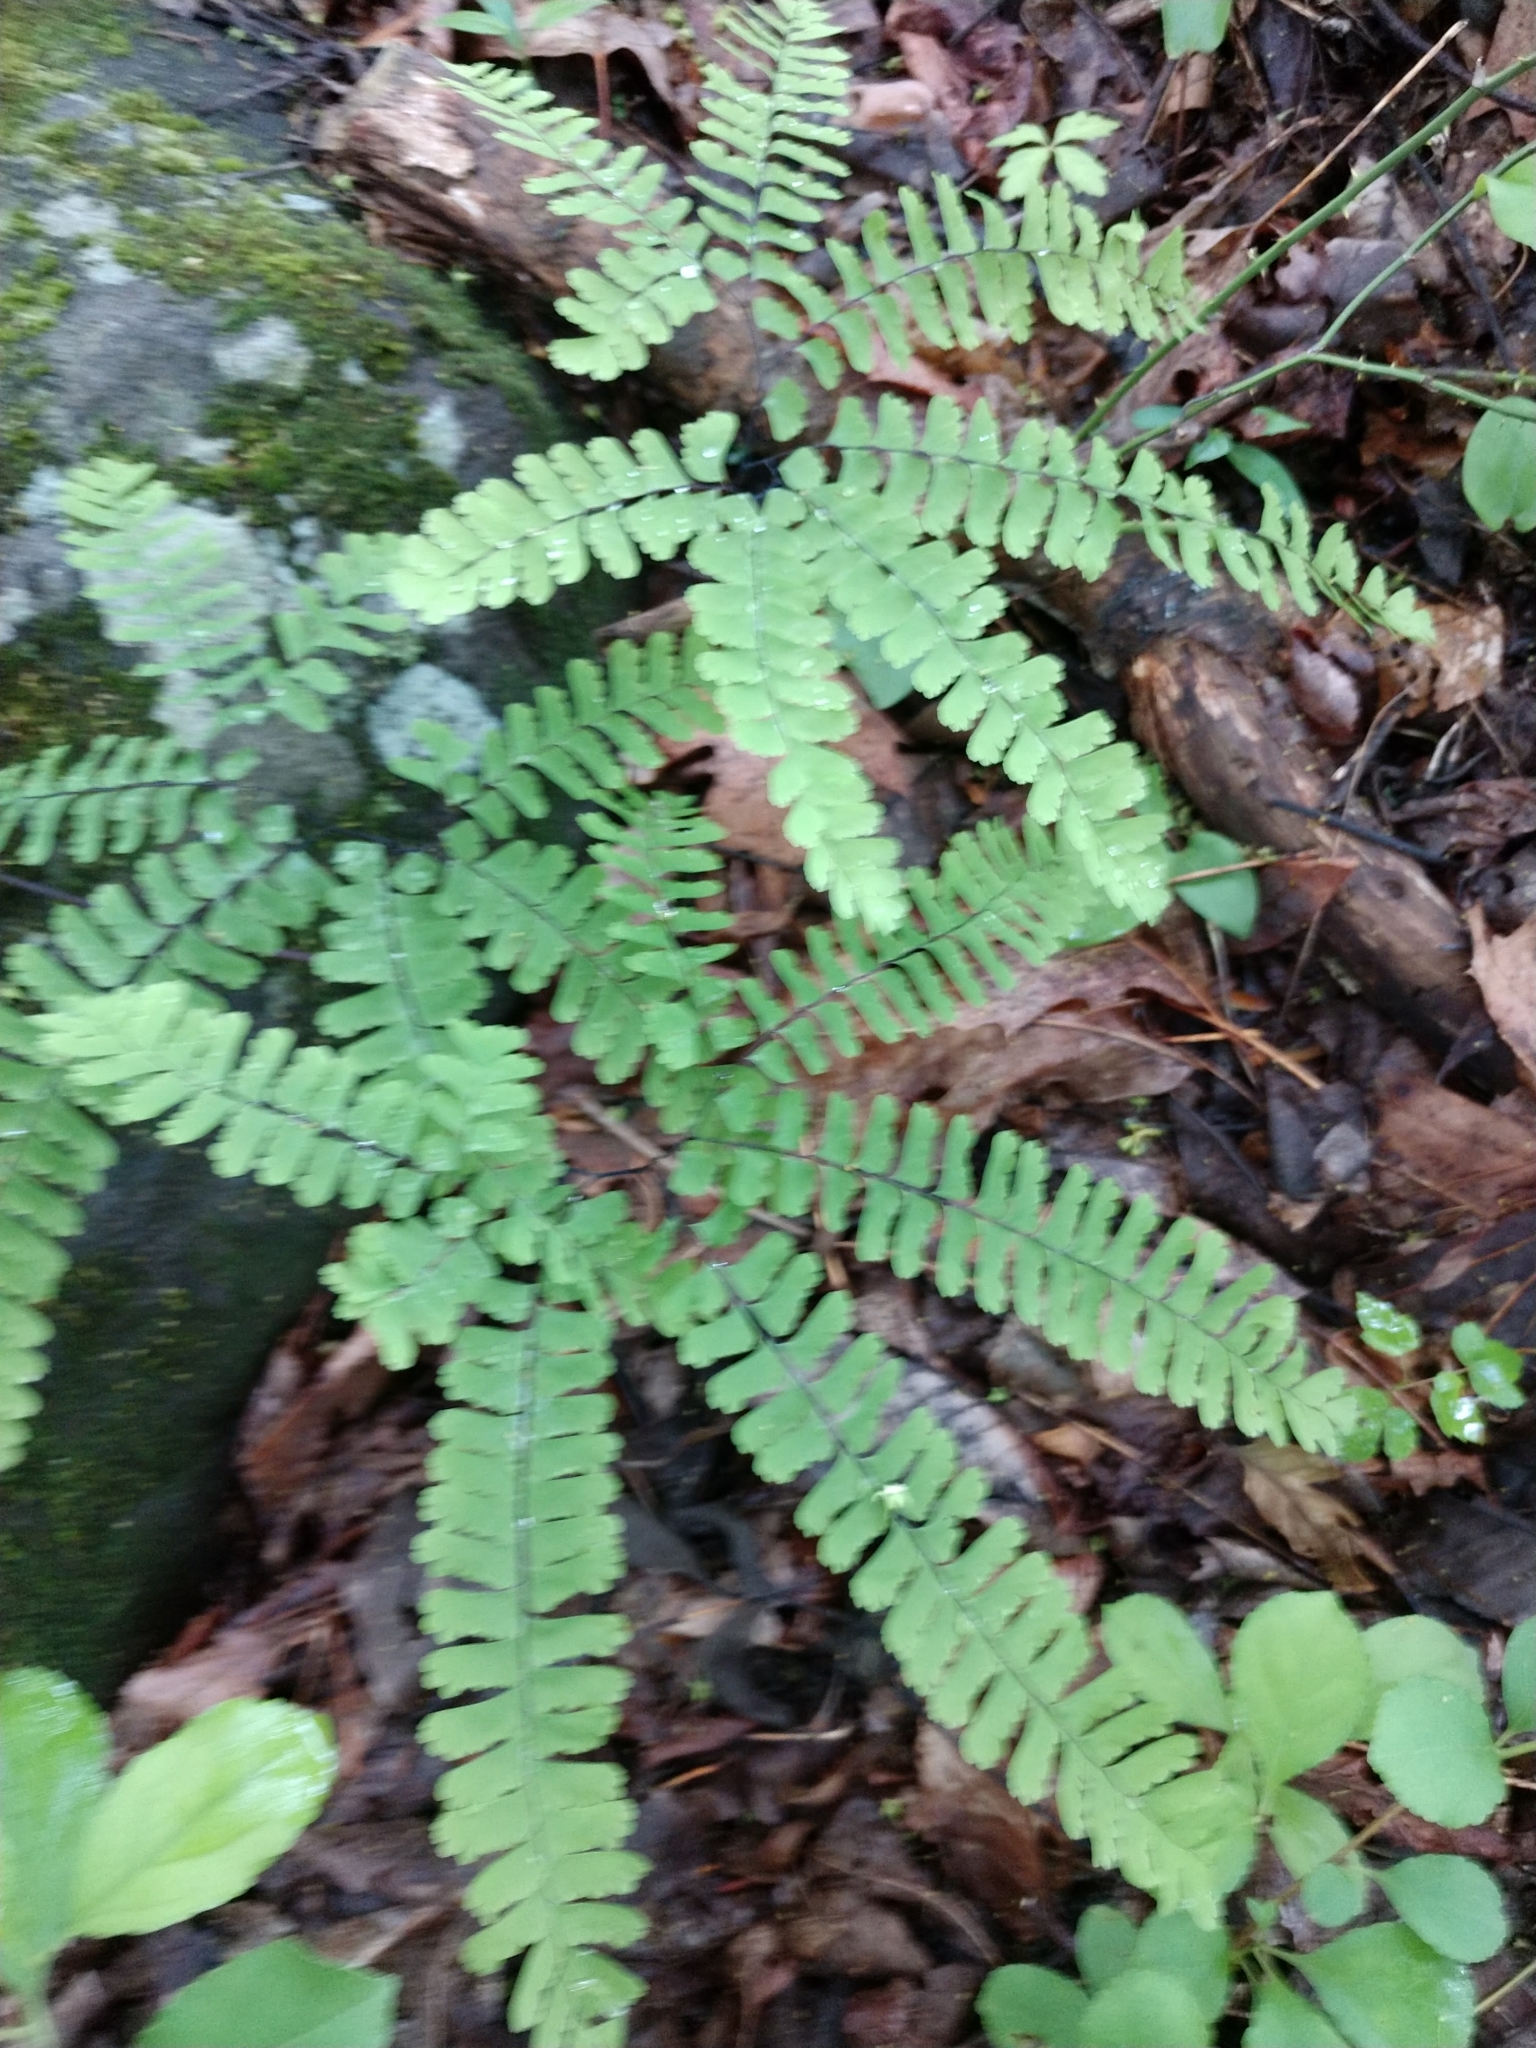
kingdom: Plantae
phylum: Tracheophyta
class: Polypodiopsida
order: Polypodiales
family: Pteridaceae
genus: Adiantum
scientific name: Adiantum pedatum
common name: Five-finger fern
